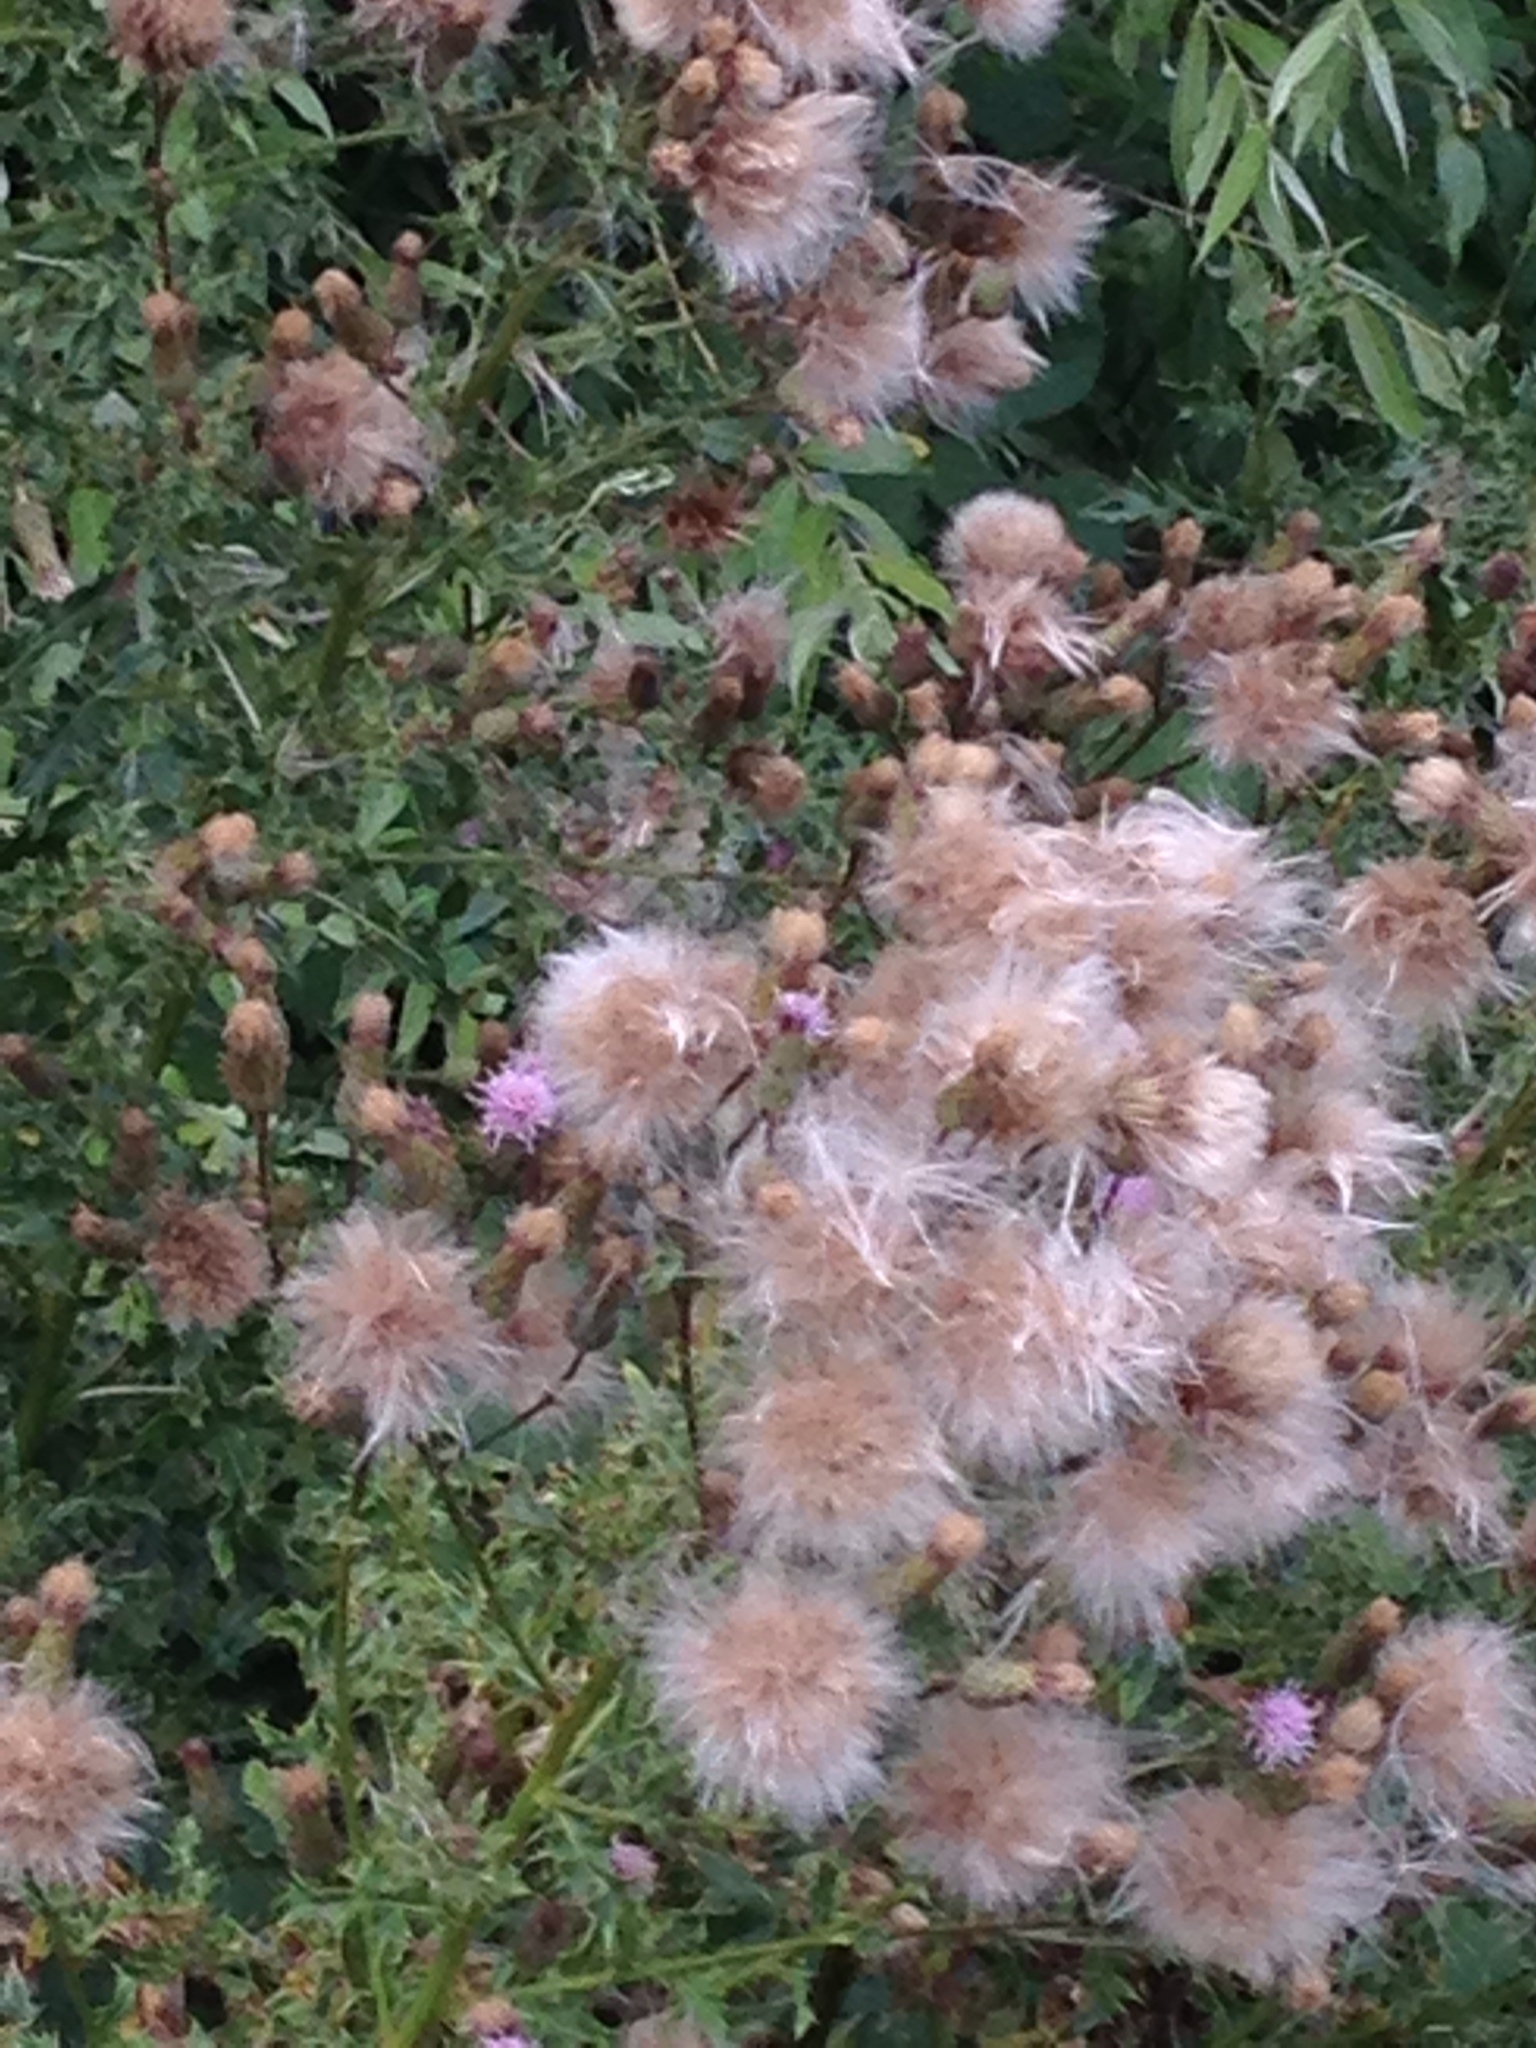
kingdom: Plantae
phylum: Tracheophyta
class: Magnoliopsida
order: Asterales
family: Asteraceae
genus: Cirsium
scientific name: Cirsium arvense
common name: Creeping thistle
